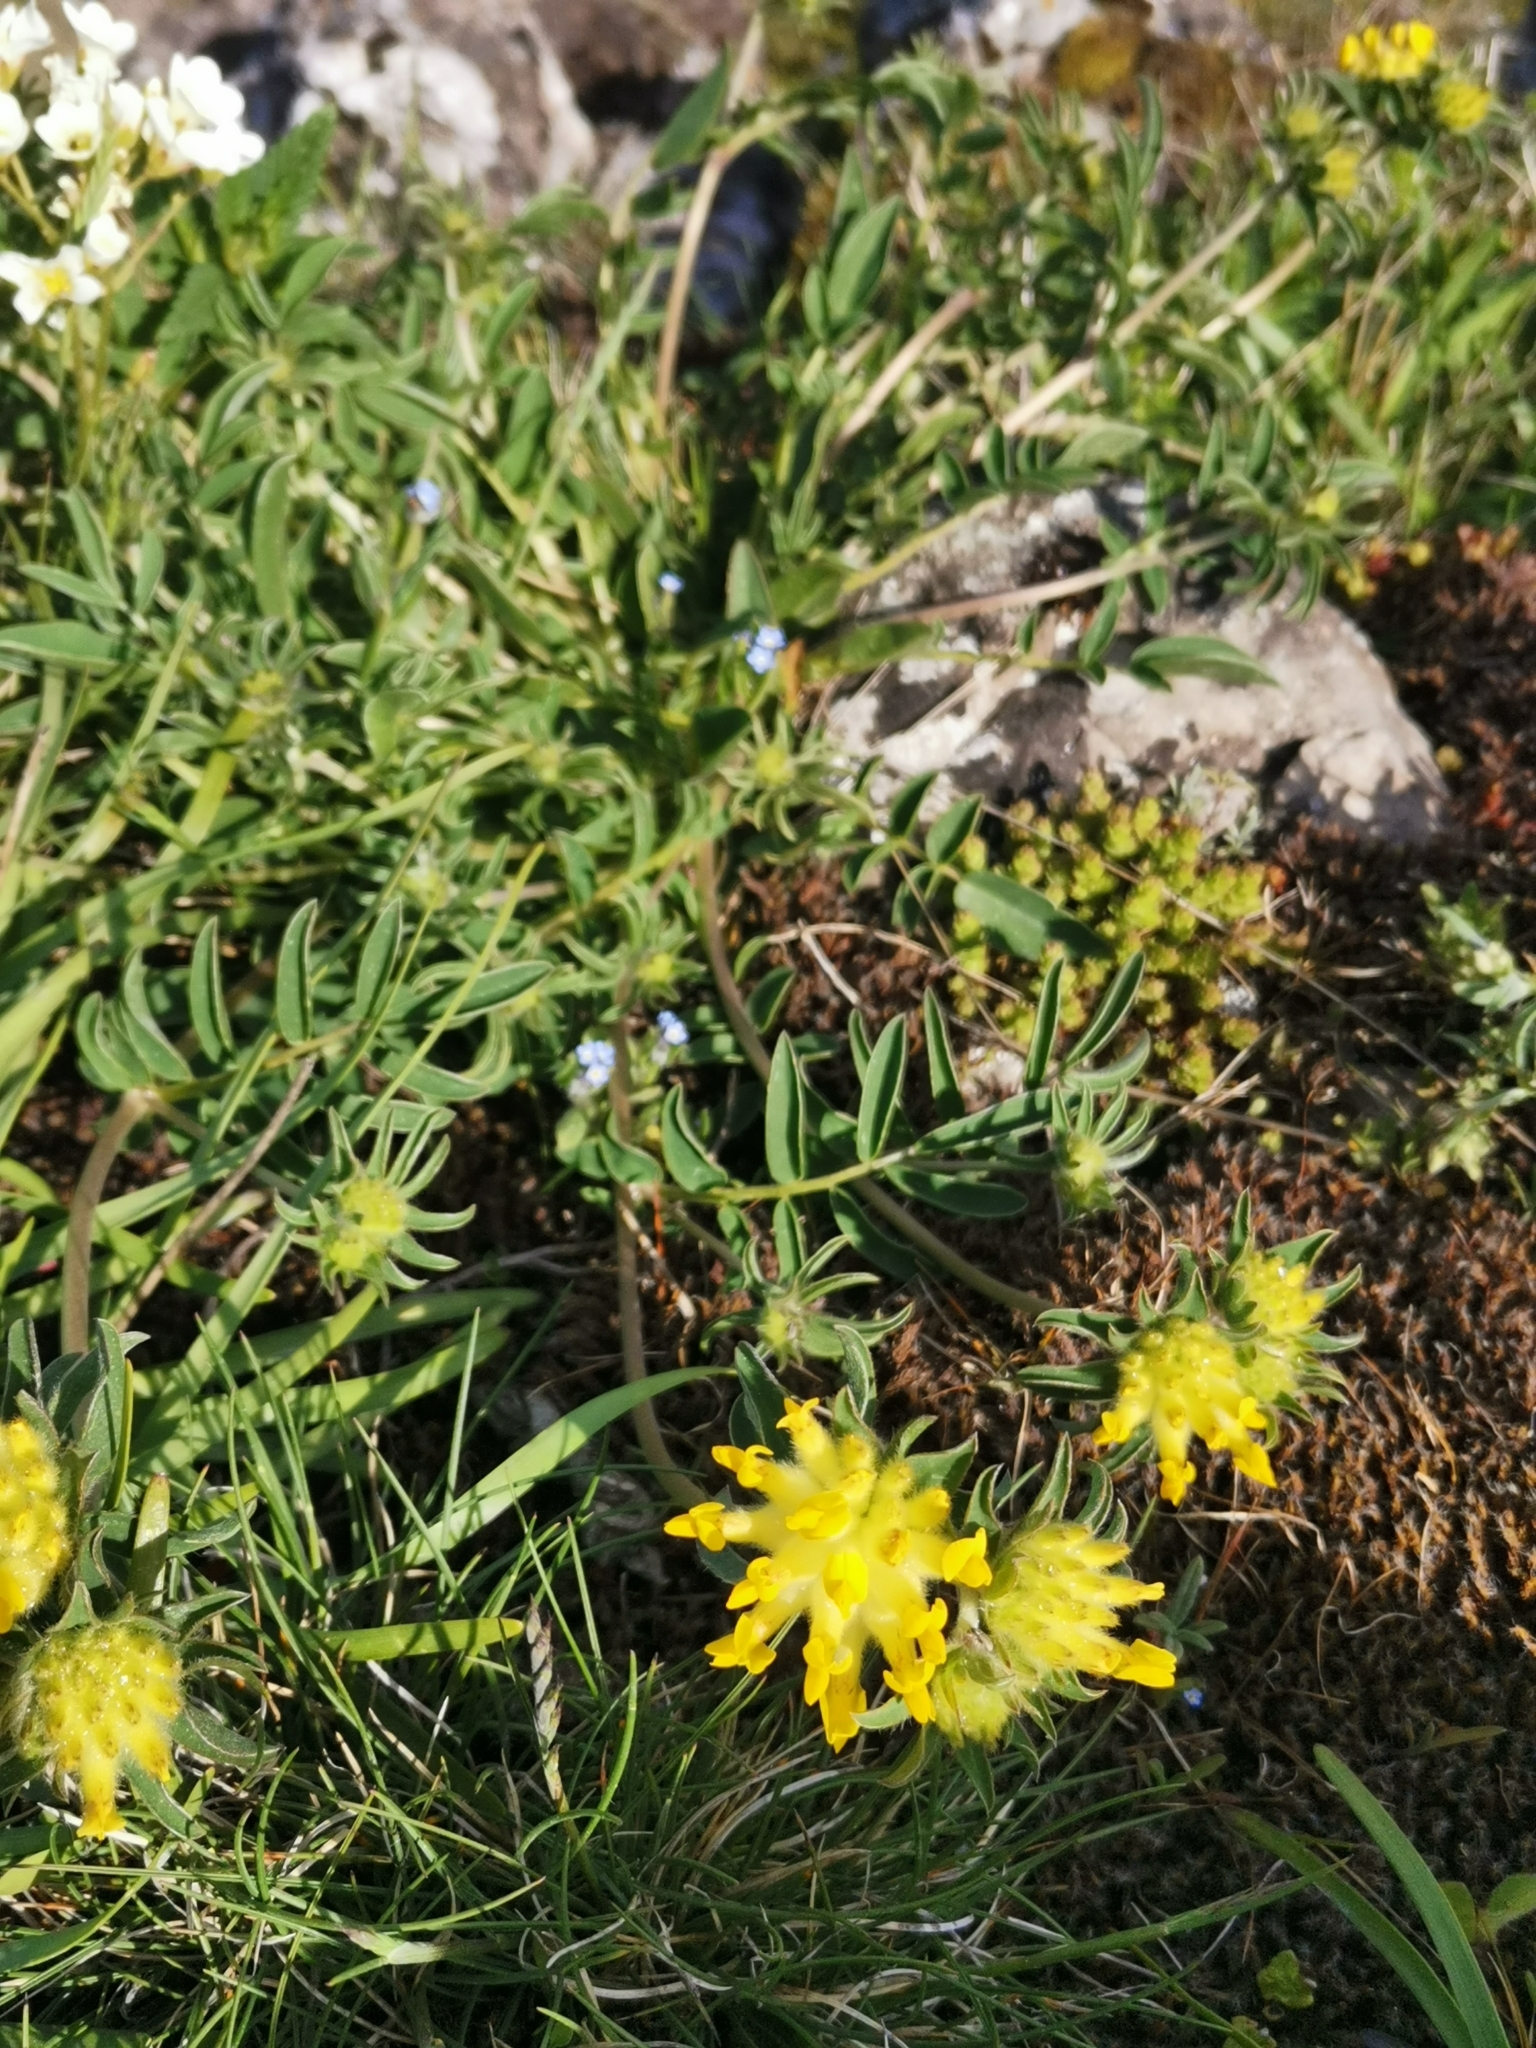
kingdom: Plantae
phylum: Tracheophyta
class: Magnoliopsida
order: Fabales
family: Fabaceae
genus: Anthyllis
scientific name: Anthyllis vulneraria
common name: Kidney vetch
